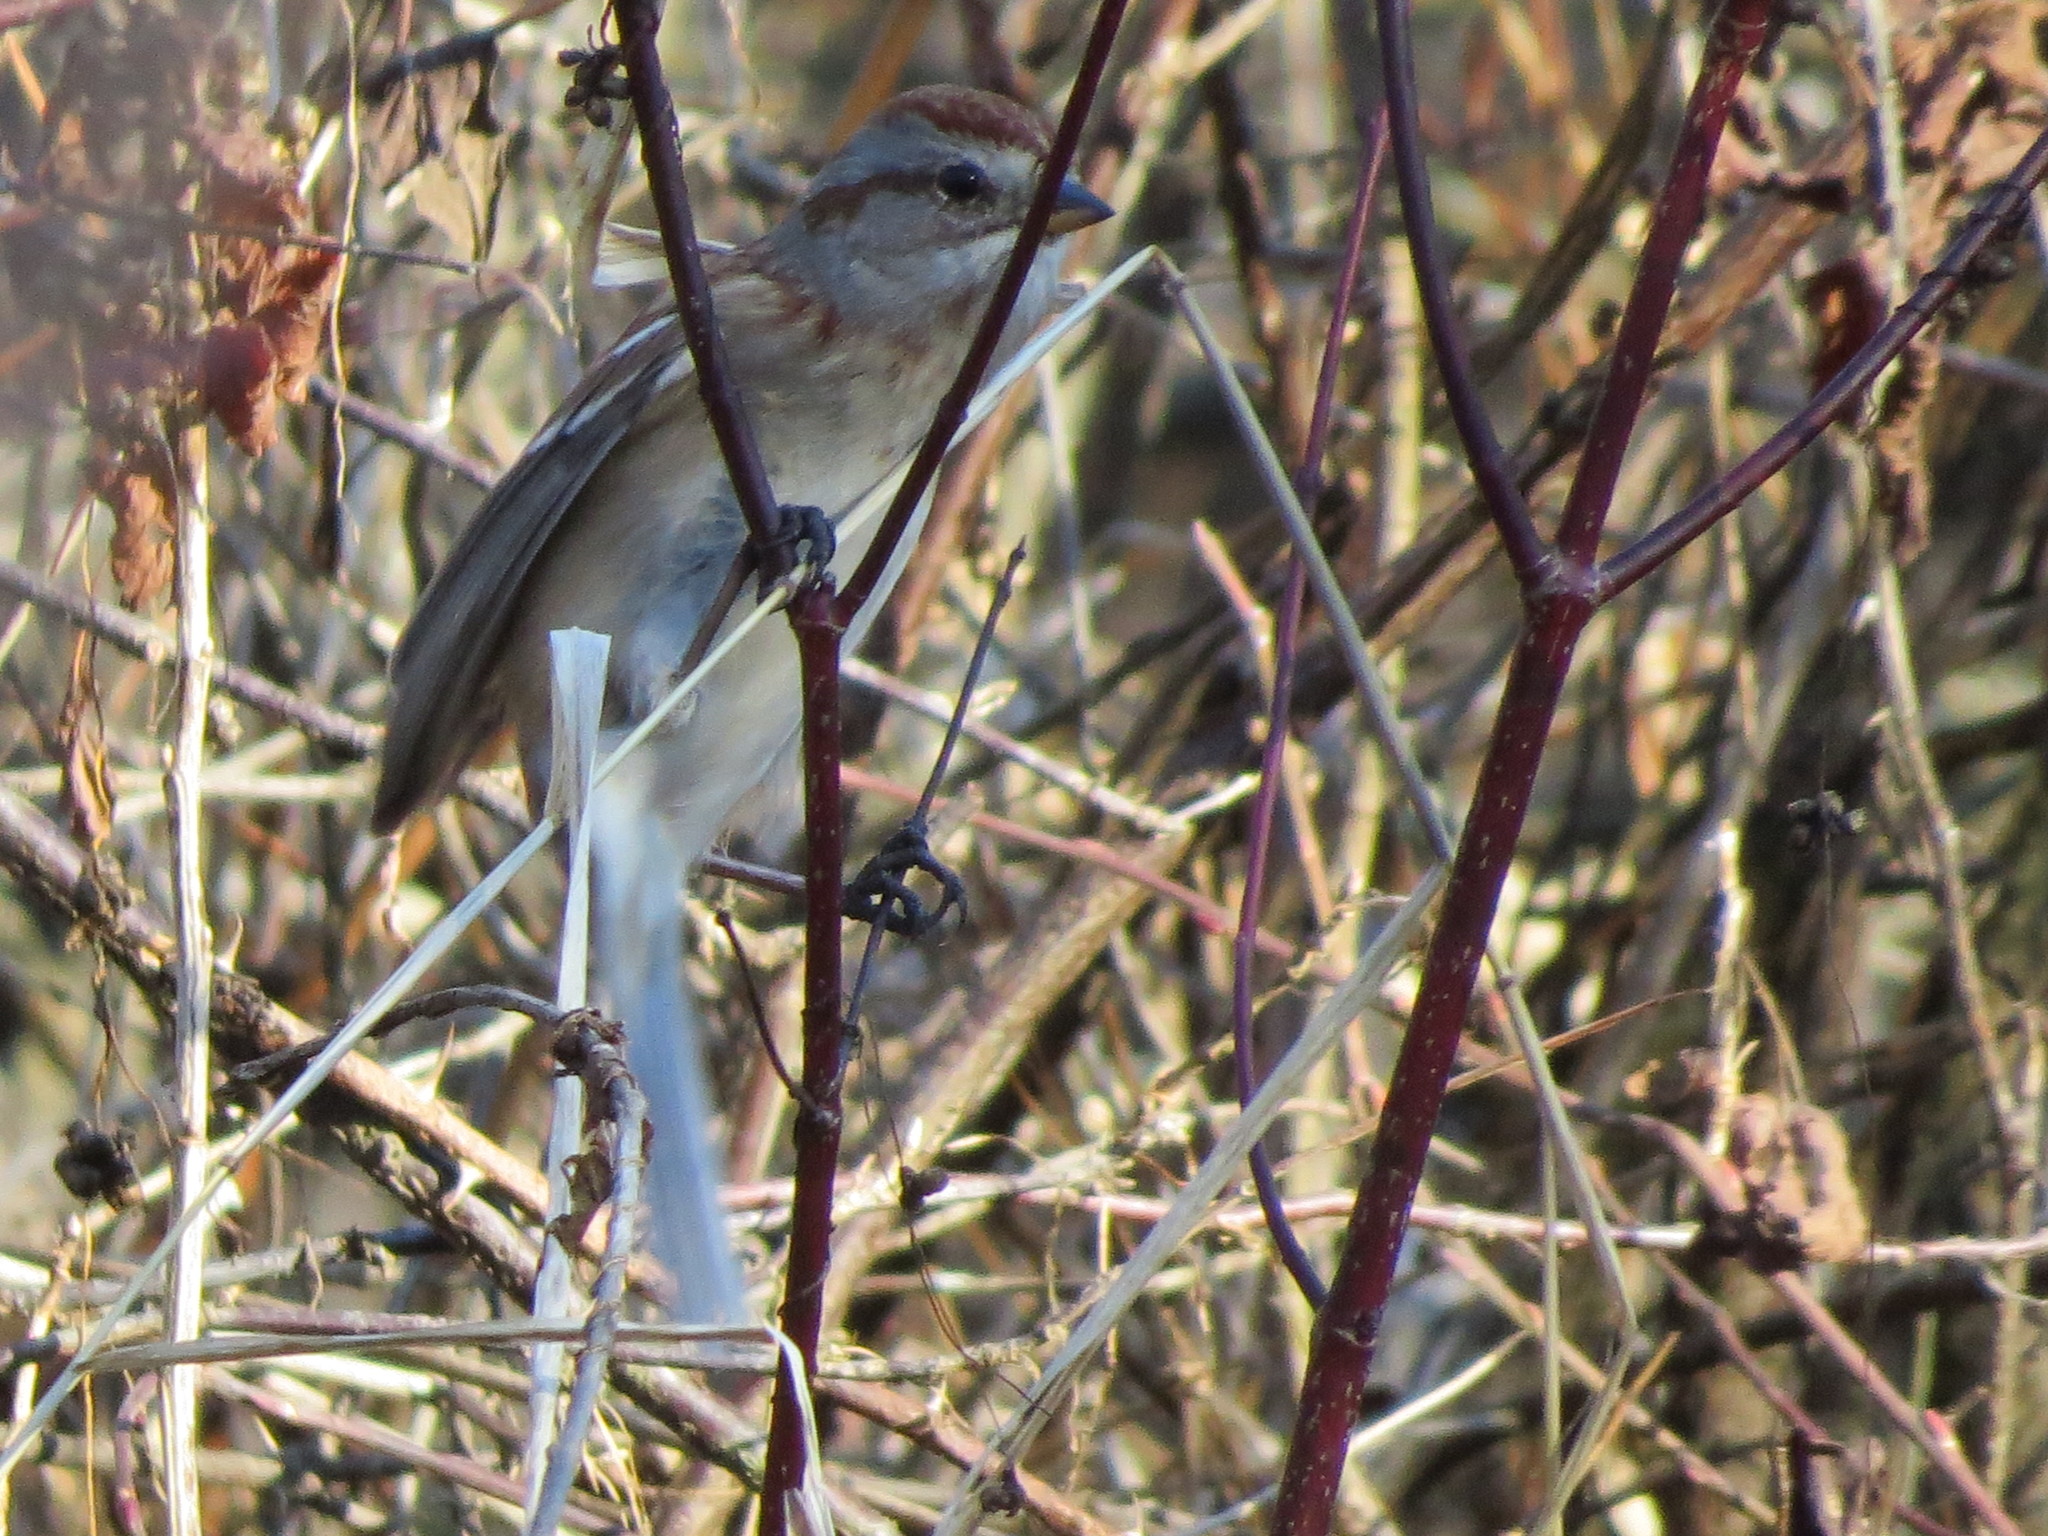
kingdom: Animalia
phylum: Chordata
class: Aves
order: Passeriformes
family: Passerellidae
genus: Spizelloides
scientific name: Spizelloides arborea
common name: American tree sparrow
